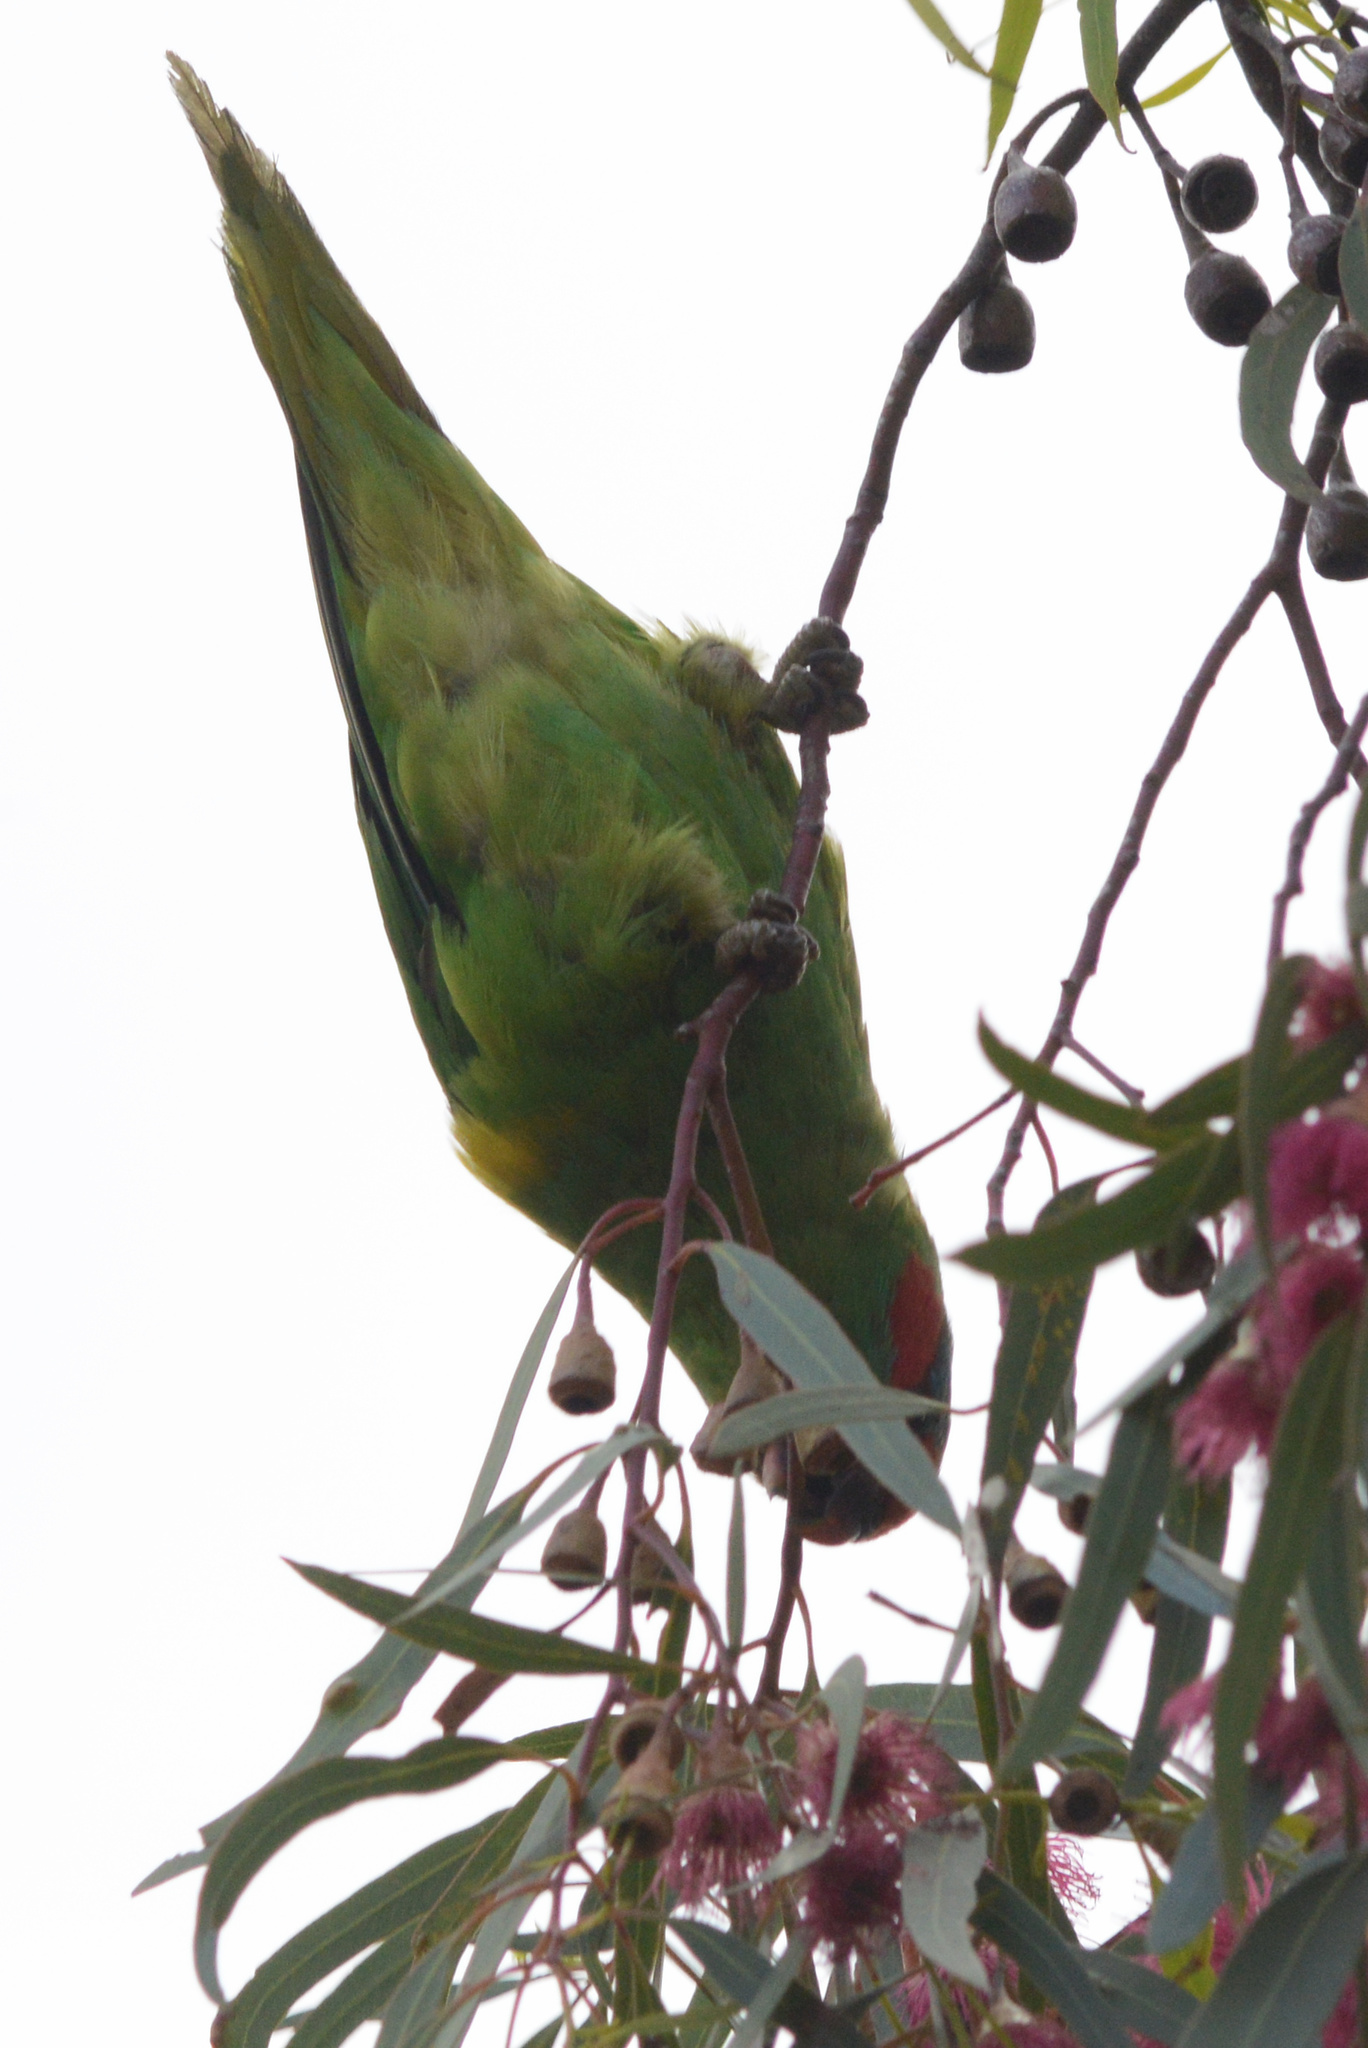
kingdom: Animalia
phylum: Chordata
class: Aves
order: Psittaciformes
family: Psittacidae
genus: Glossopsitta
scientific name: Glossopsitta concinna
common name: Musk lorikeet
